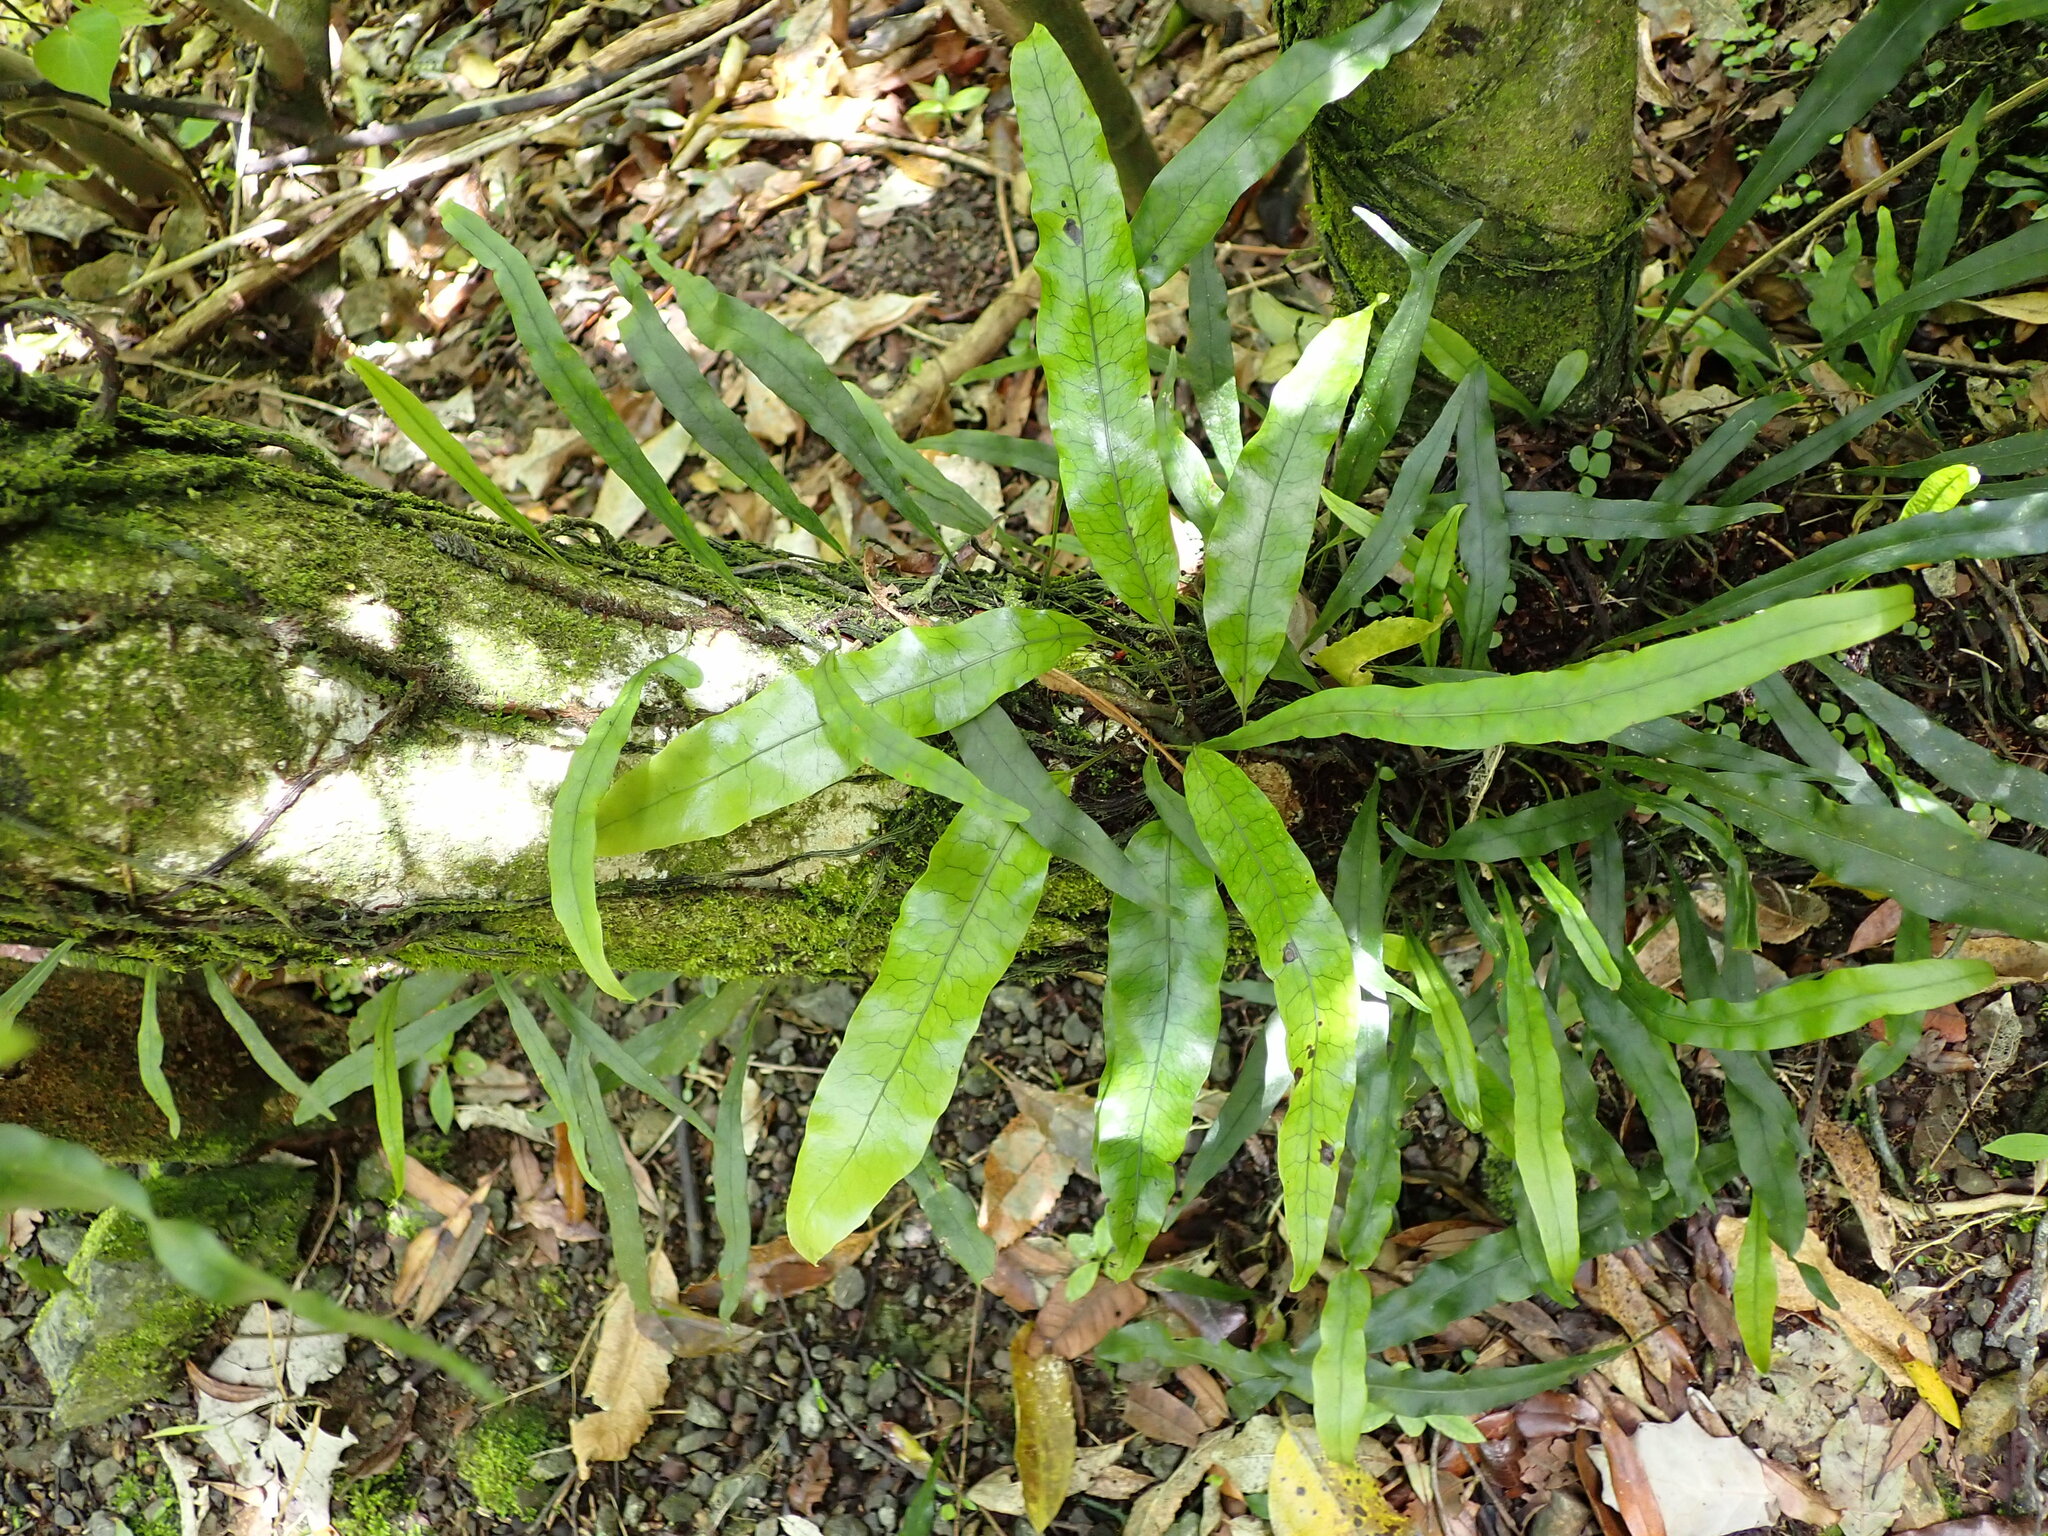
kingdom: Plantae
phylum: Tracheophyta
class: Polypodiopsida
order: Polypodiales
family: Polypodiaceae
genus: Lecanopteris
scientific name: Lecanopteris pustulata
